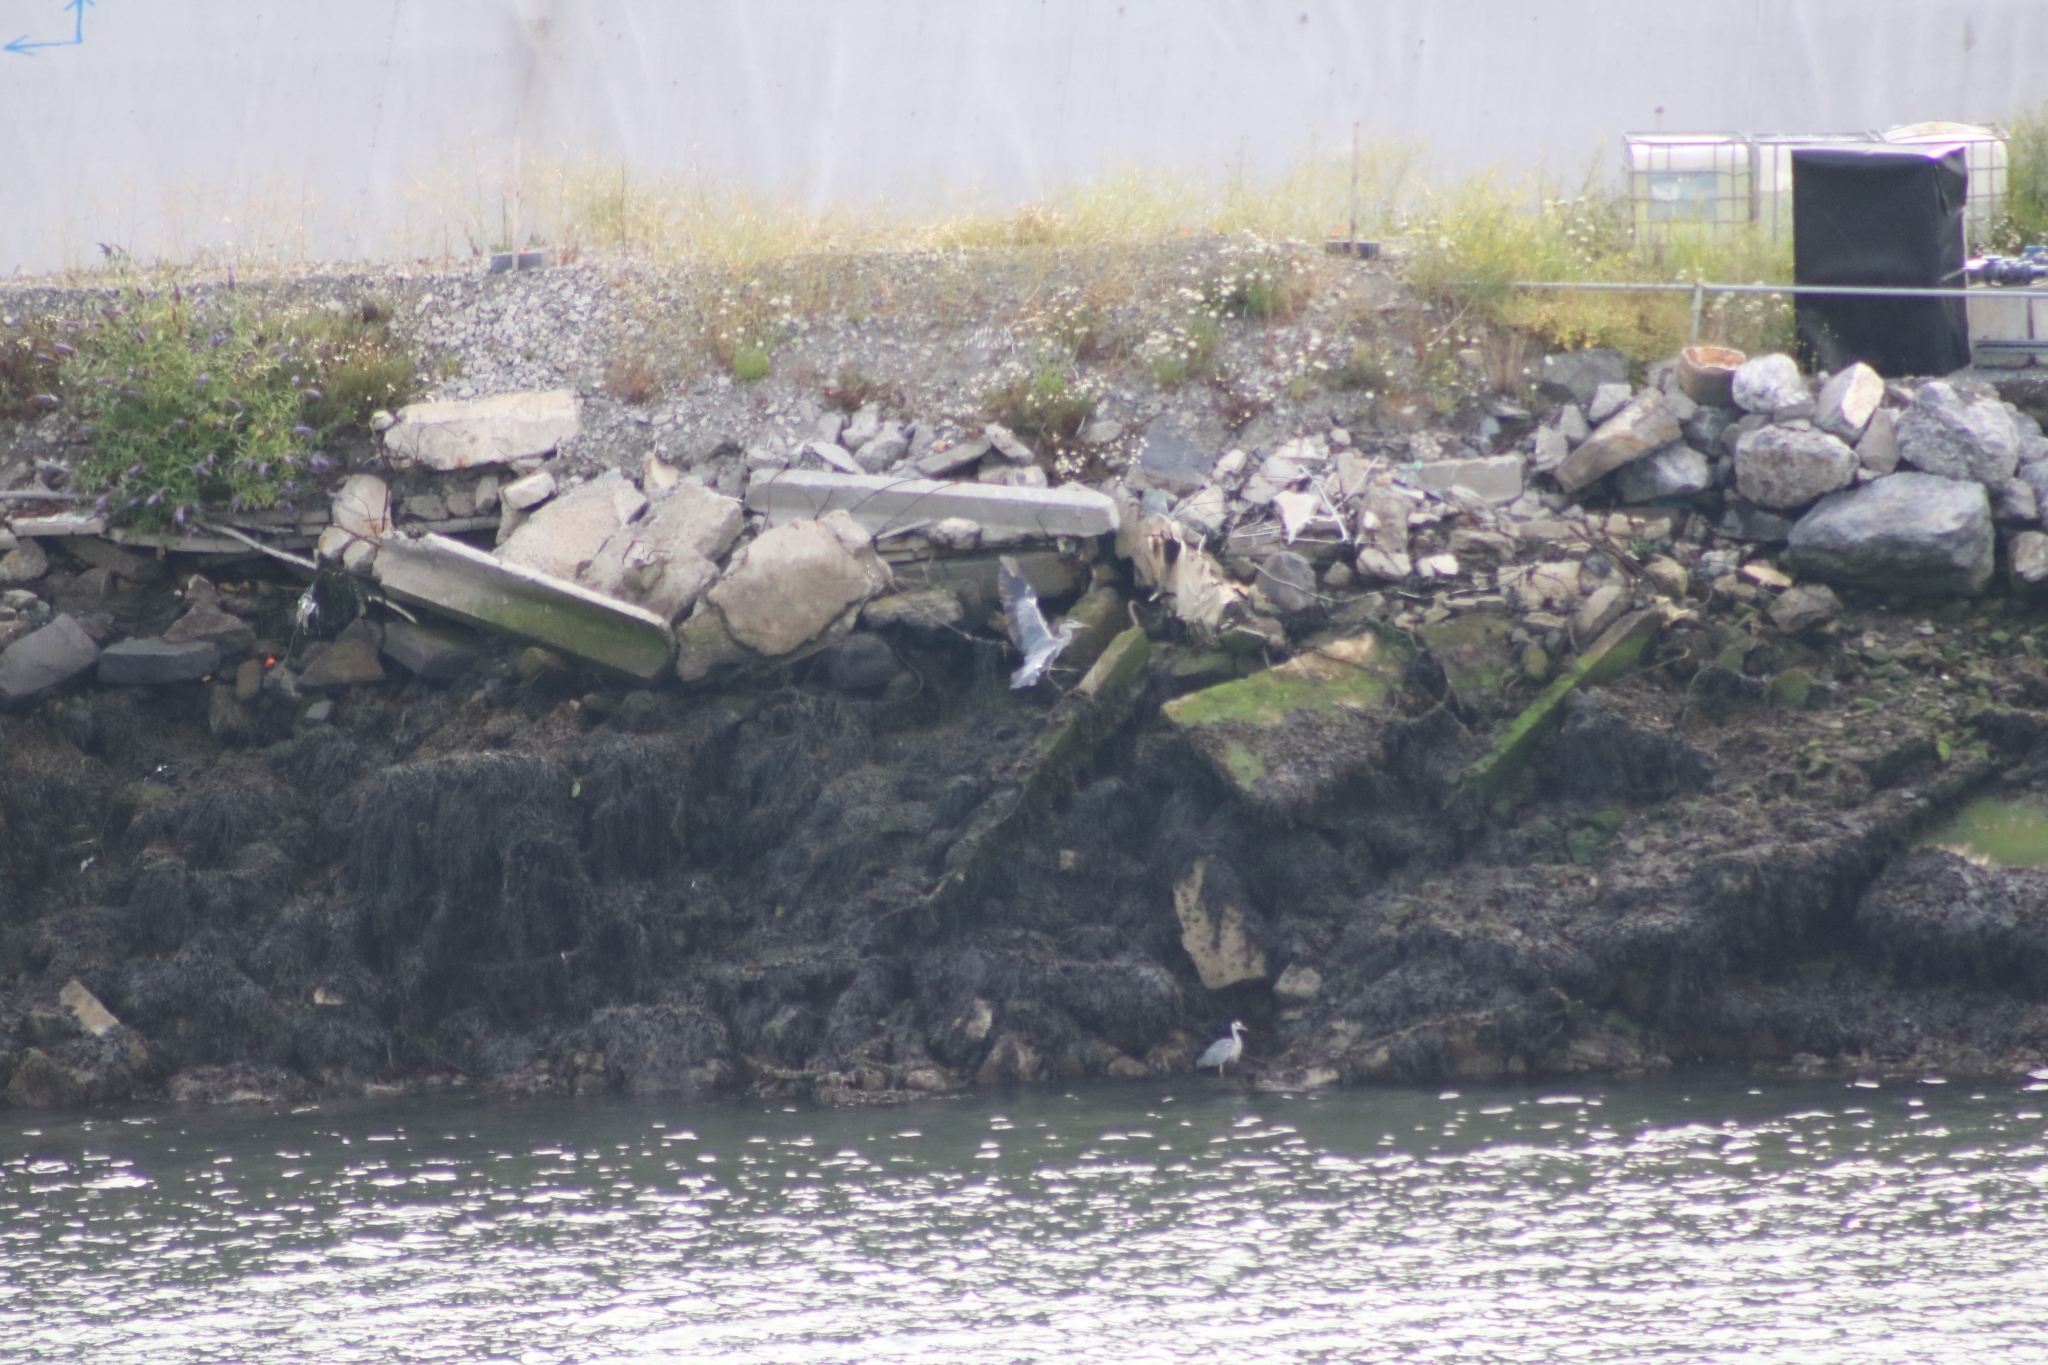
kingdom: Animalia
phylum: Chordata
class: Aves
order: Pelecaniformes
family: Ardeidae
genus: Ardea
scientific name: Ardea cinerea
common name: Grey heron
